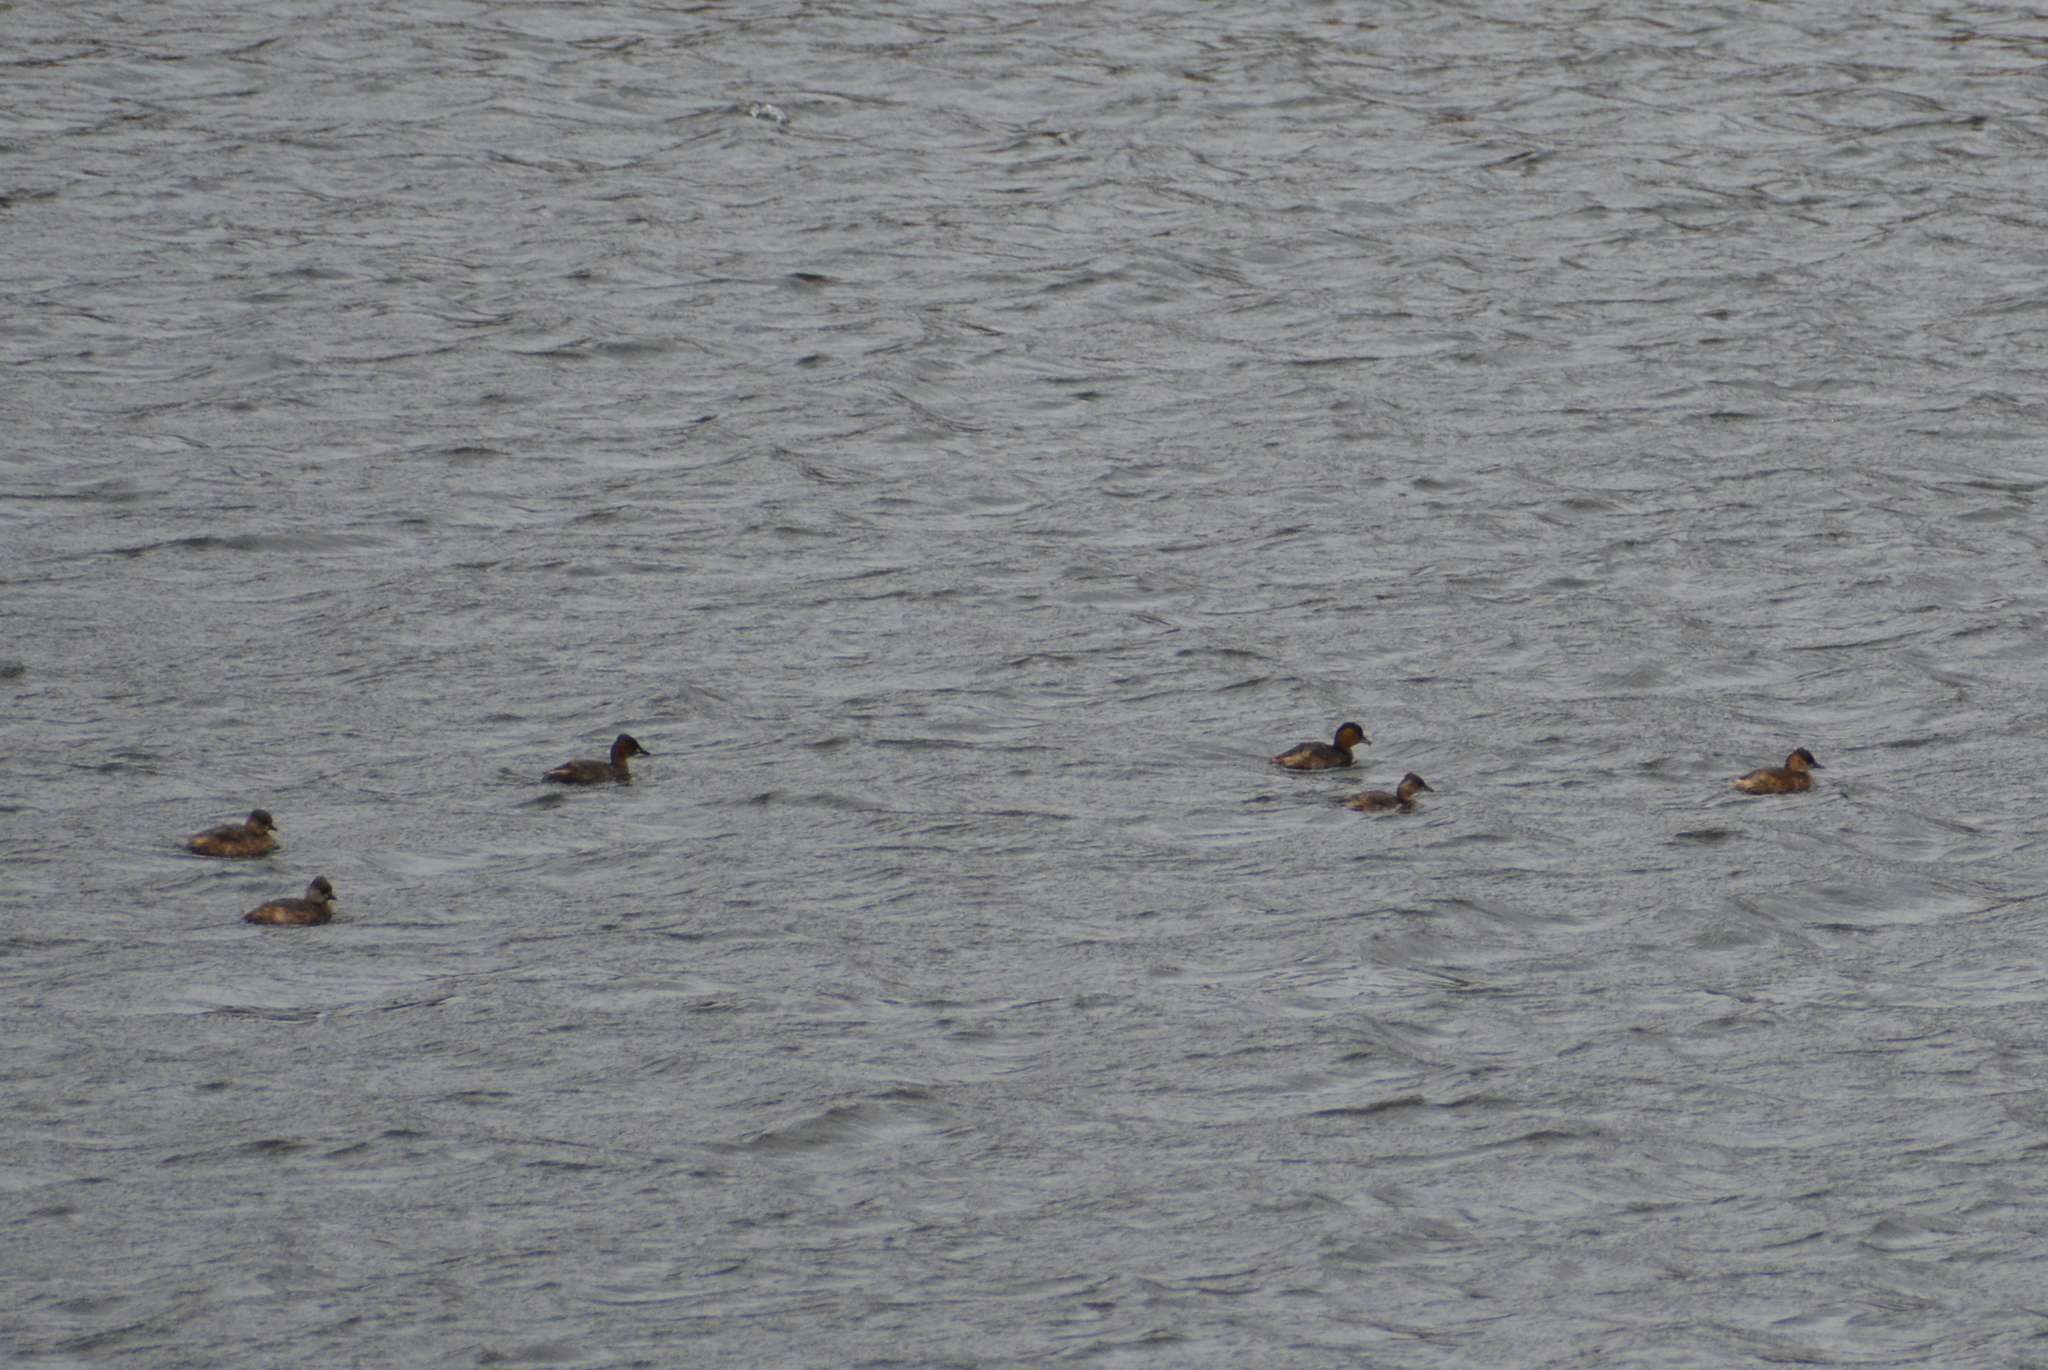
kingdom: Animalia
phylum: Chordata
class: Aves
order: Podicipediformes
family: Podicipedidae
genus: Tachybaptus
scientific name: Tachybaptus ruficollis
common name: Little grebe
